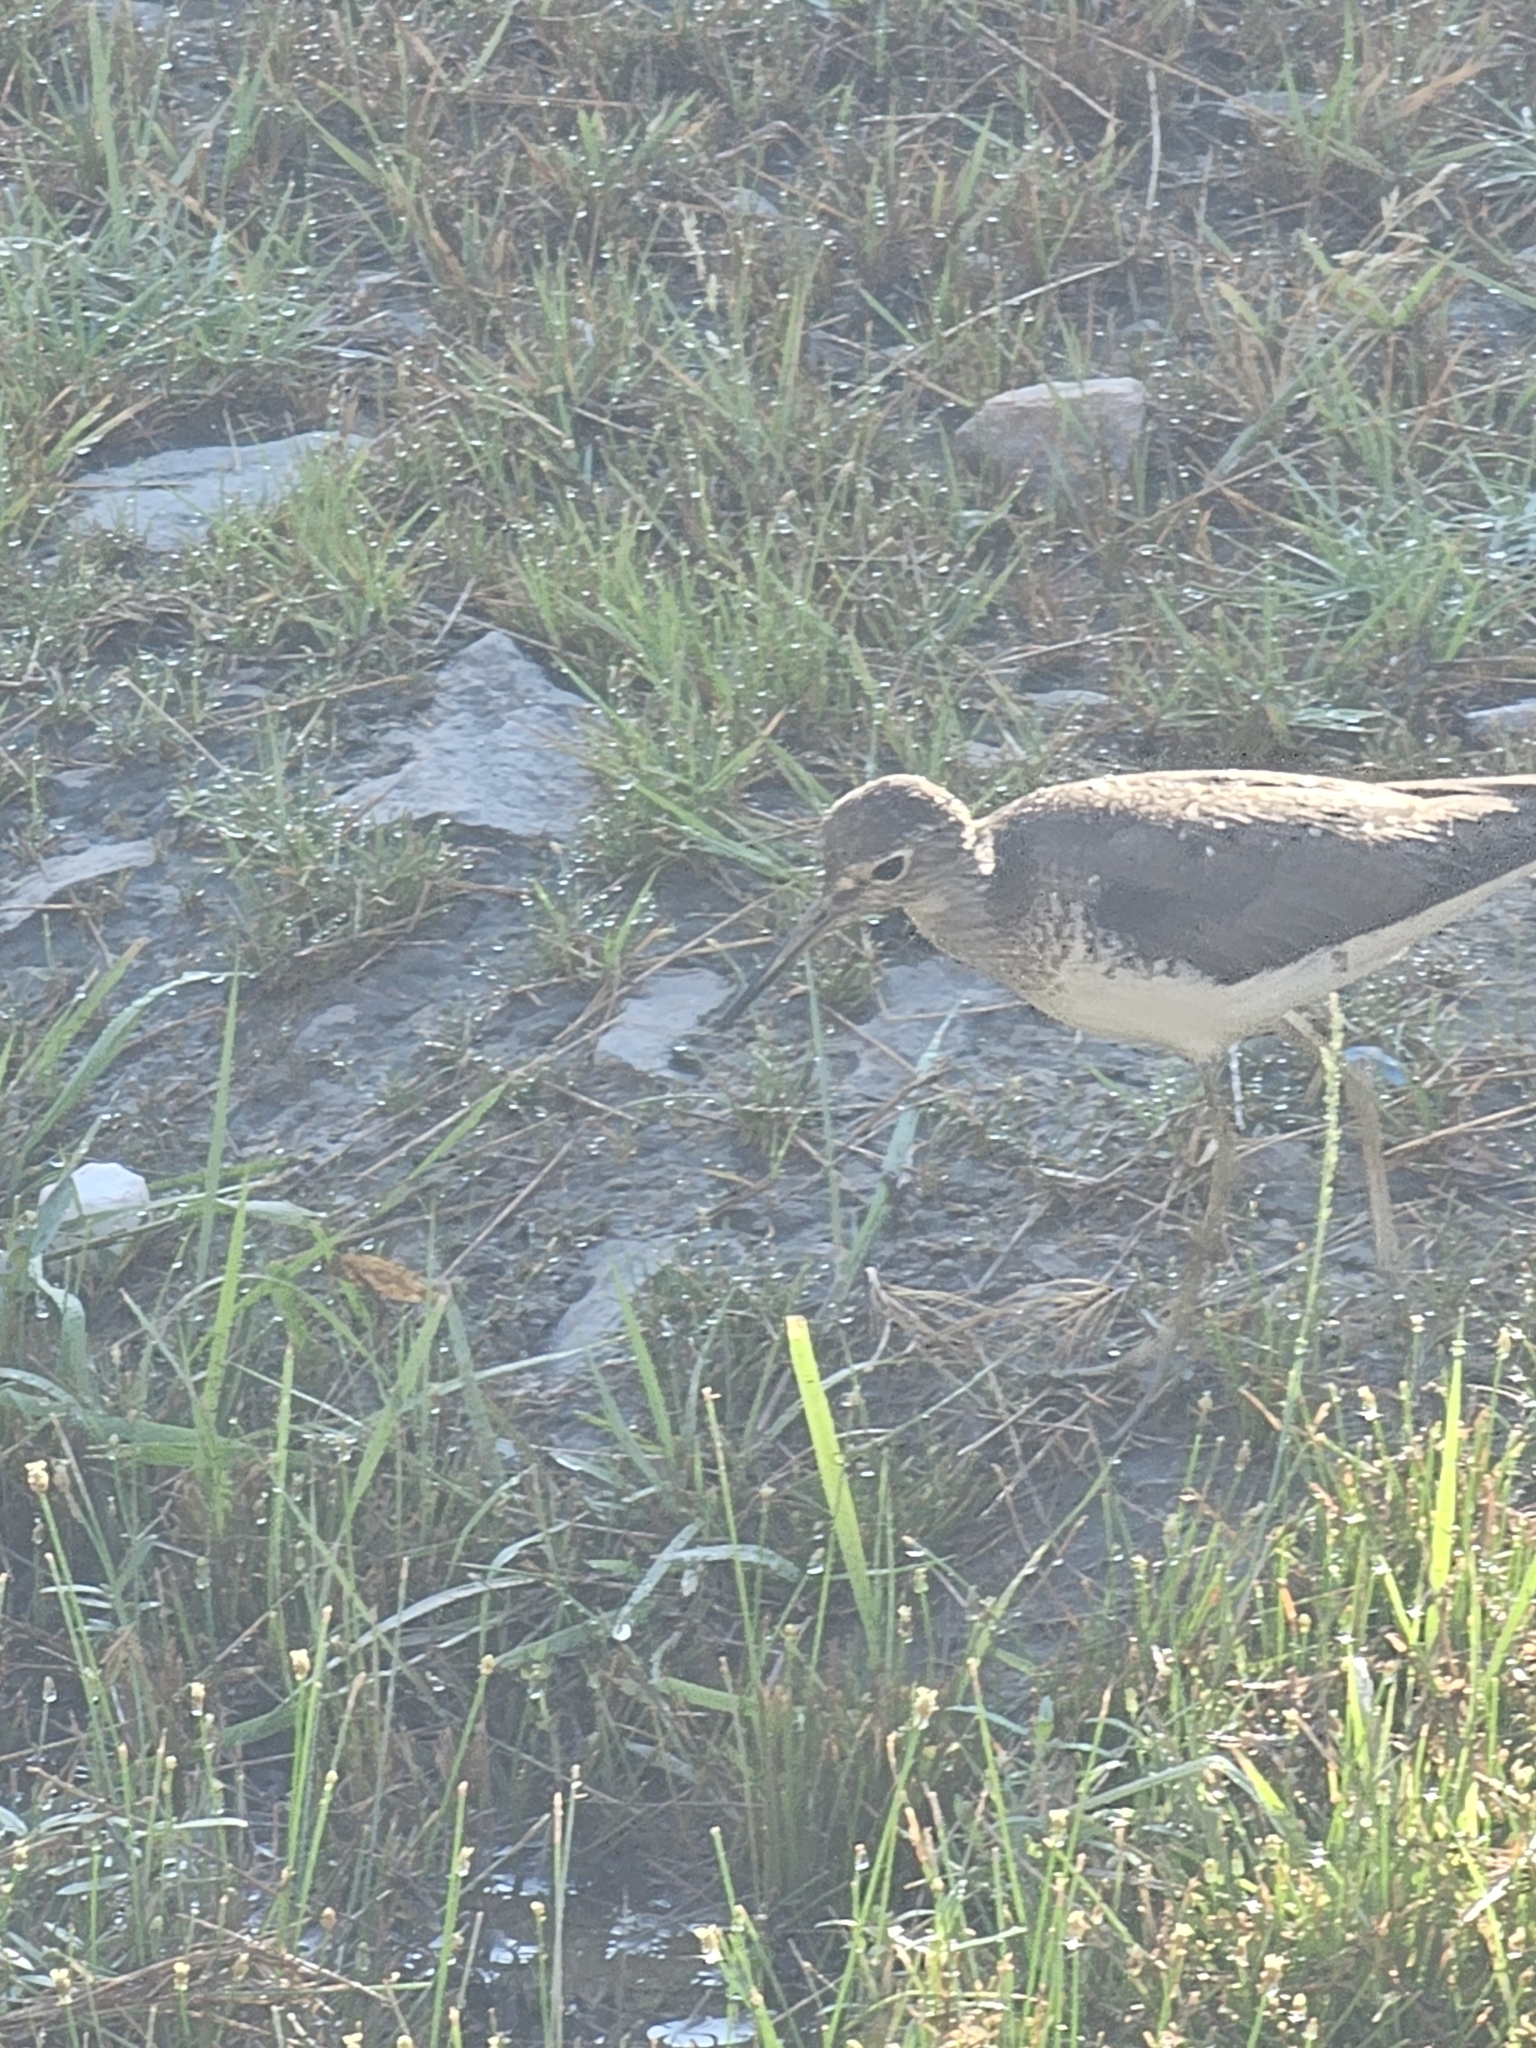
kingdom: Animalia
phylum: Chordata
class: Aves
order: Charadriiformes
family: Scolopacidae
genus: Tringa
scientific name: Tringa solitaria
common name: Solitary sandpiper
